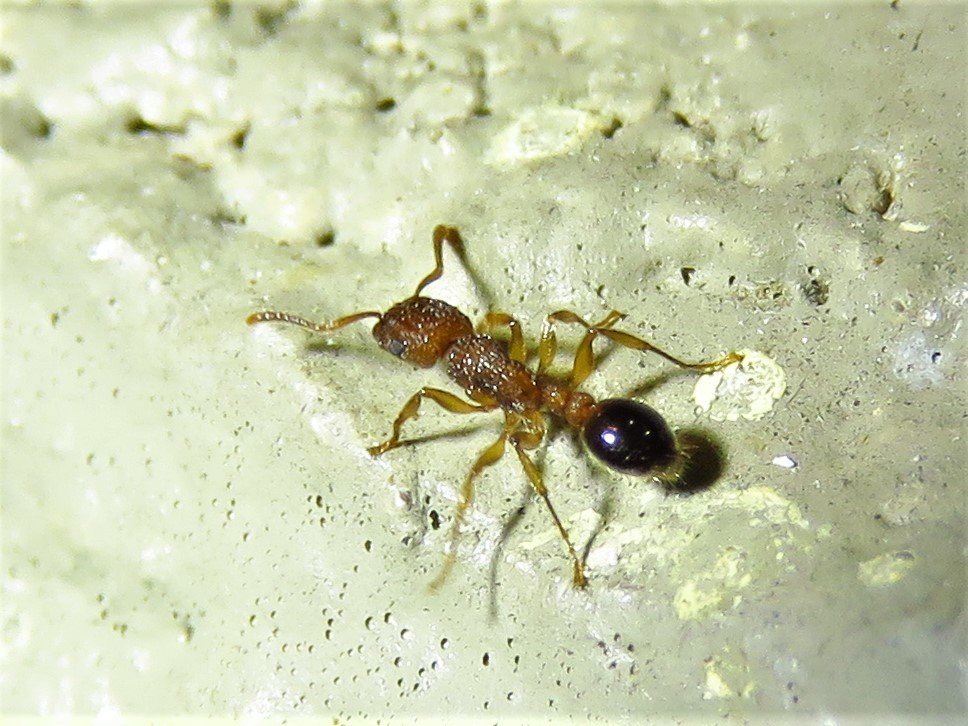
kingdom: Animalia
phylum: Arthropoda
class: Insecta
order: Hymenoptera
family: Formicidae
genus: Tetramorium
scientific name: Tetramorium bicarinatum
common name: Guinea ant
